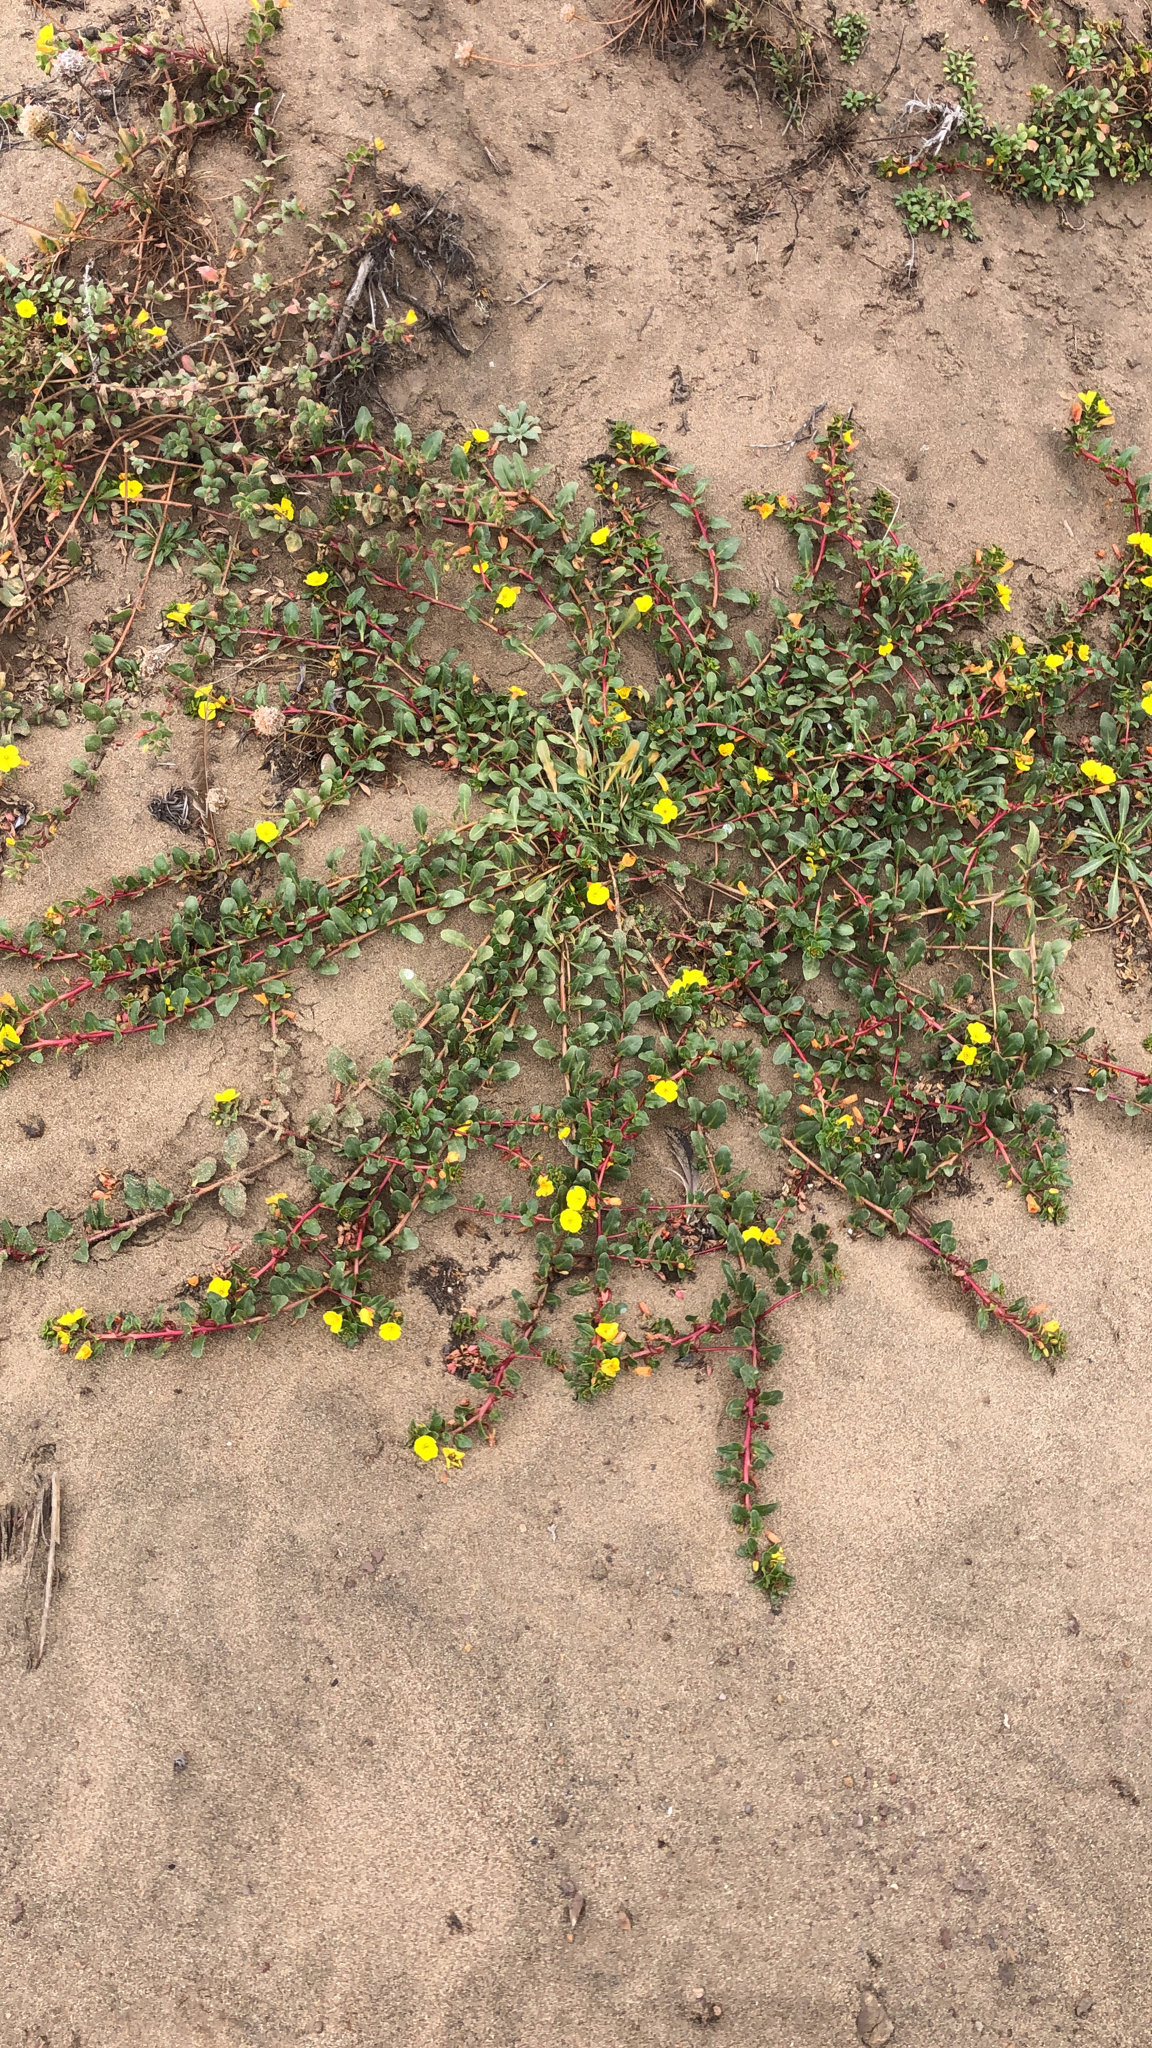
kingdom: Plantae
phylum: Tracheophyta
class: Magnoliopsida
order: Myrtales
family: Onagraceae
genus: Camissoniopsis
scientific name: Camissoniopsis cheiranthifolia
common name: Beach suncup
